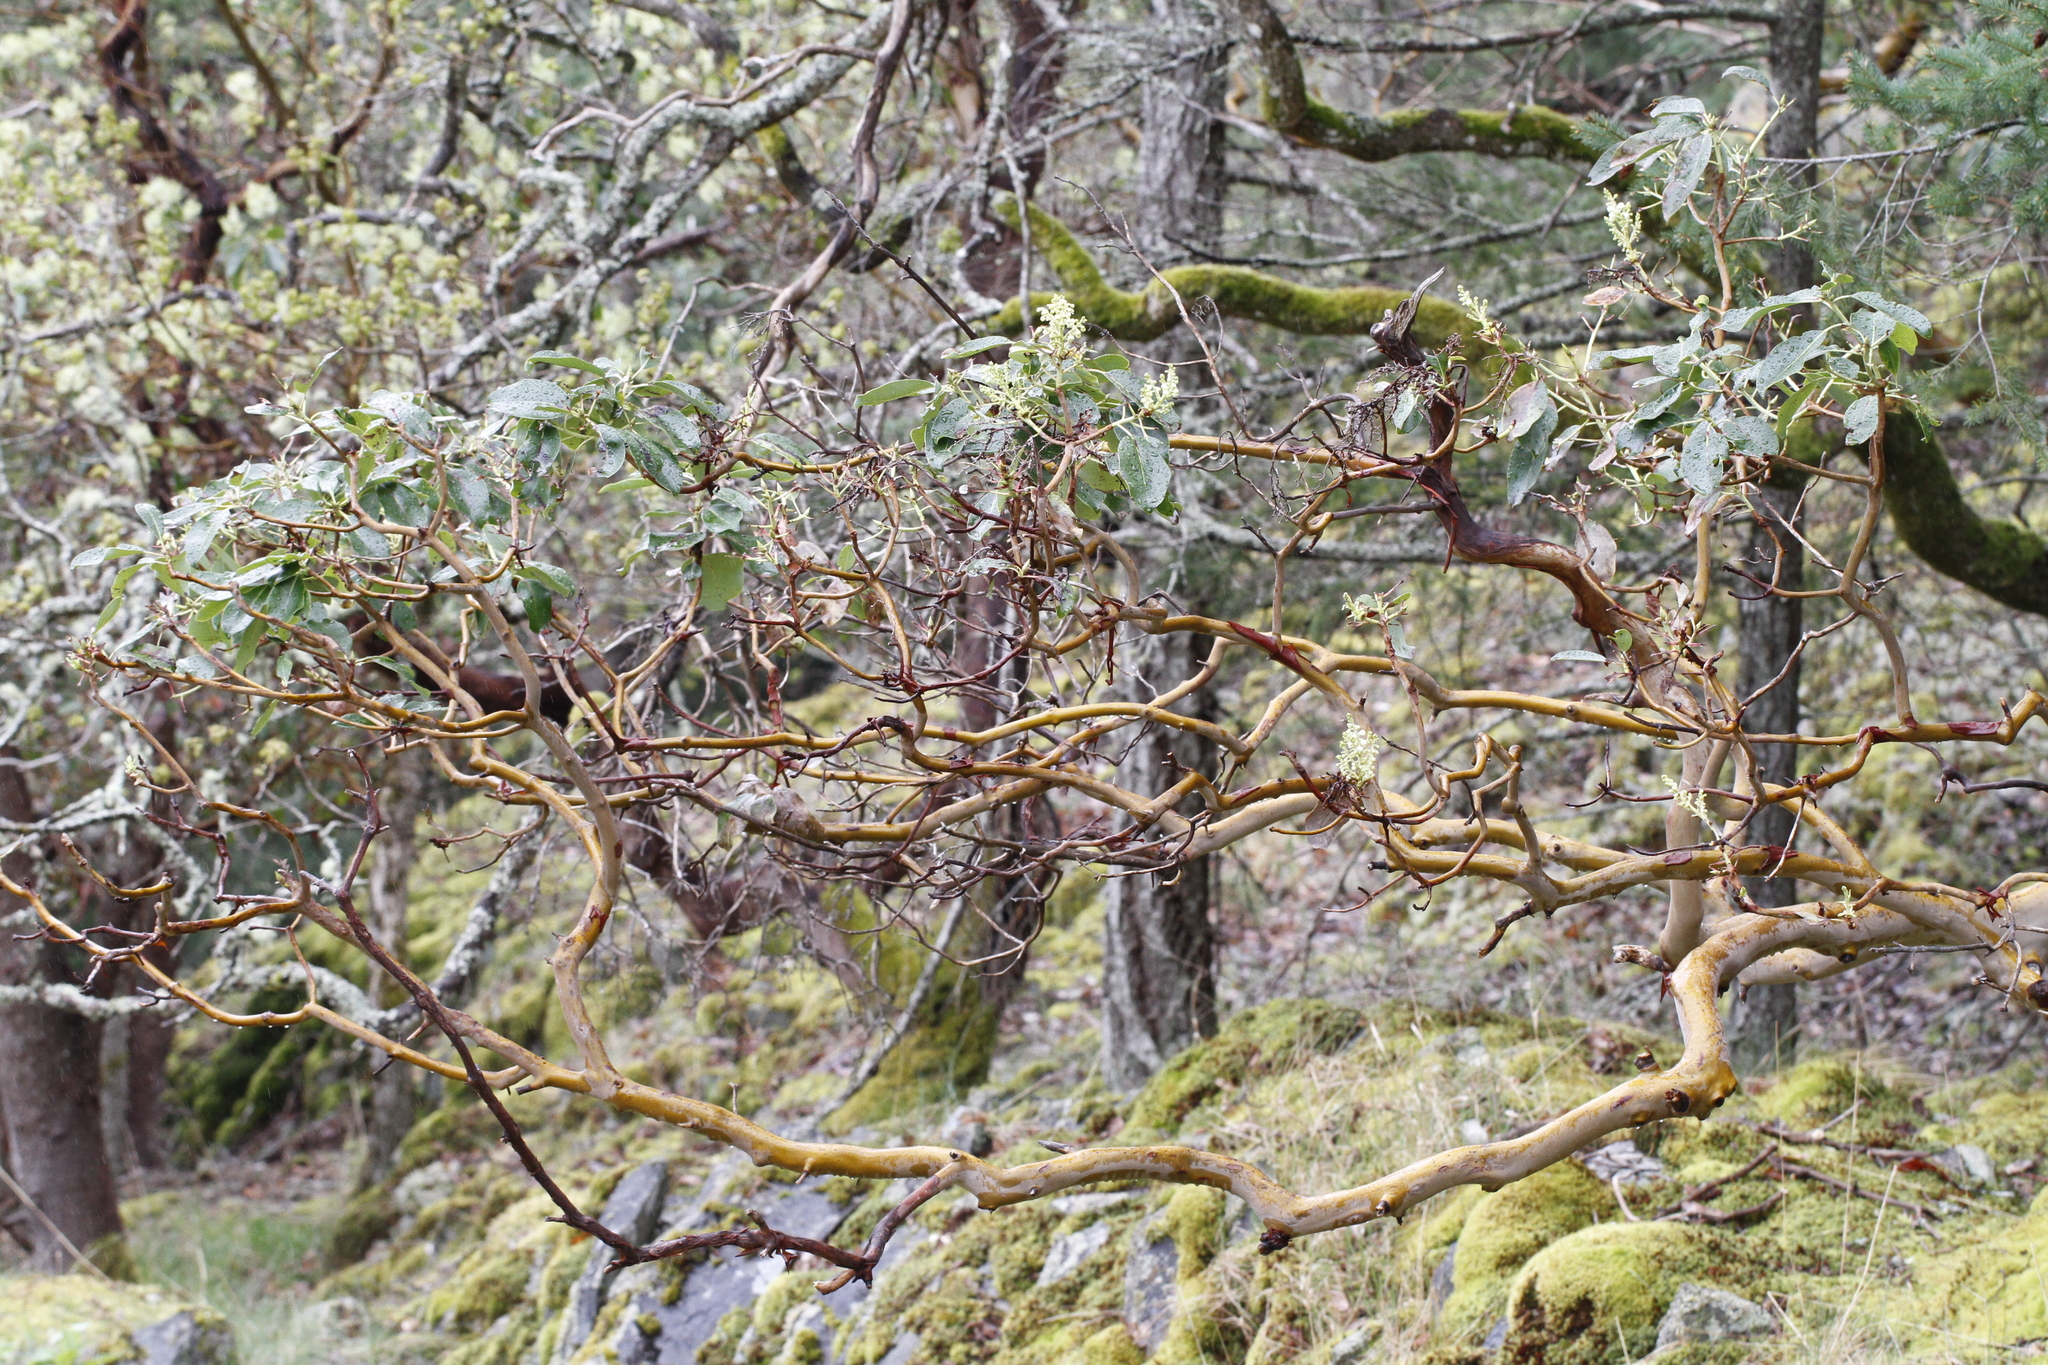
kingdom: Plantae
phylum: Tracheophyta
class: Magnoliopsida
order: Ericales
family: Ericaceae
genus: Arbutus
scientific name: Arbutus menziesii
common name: Pacific madrone
